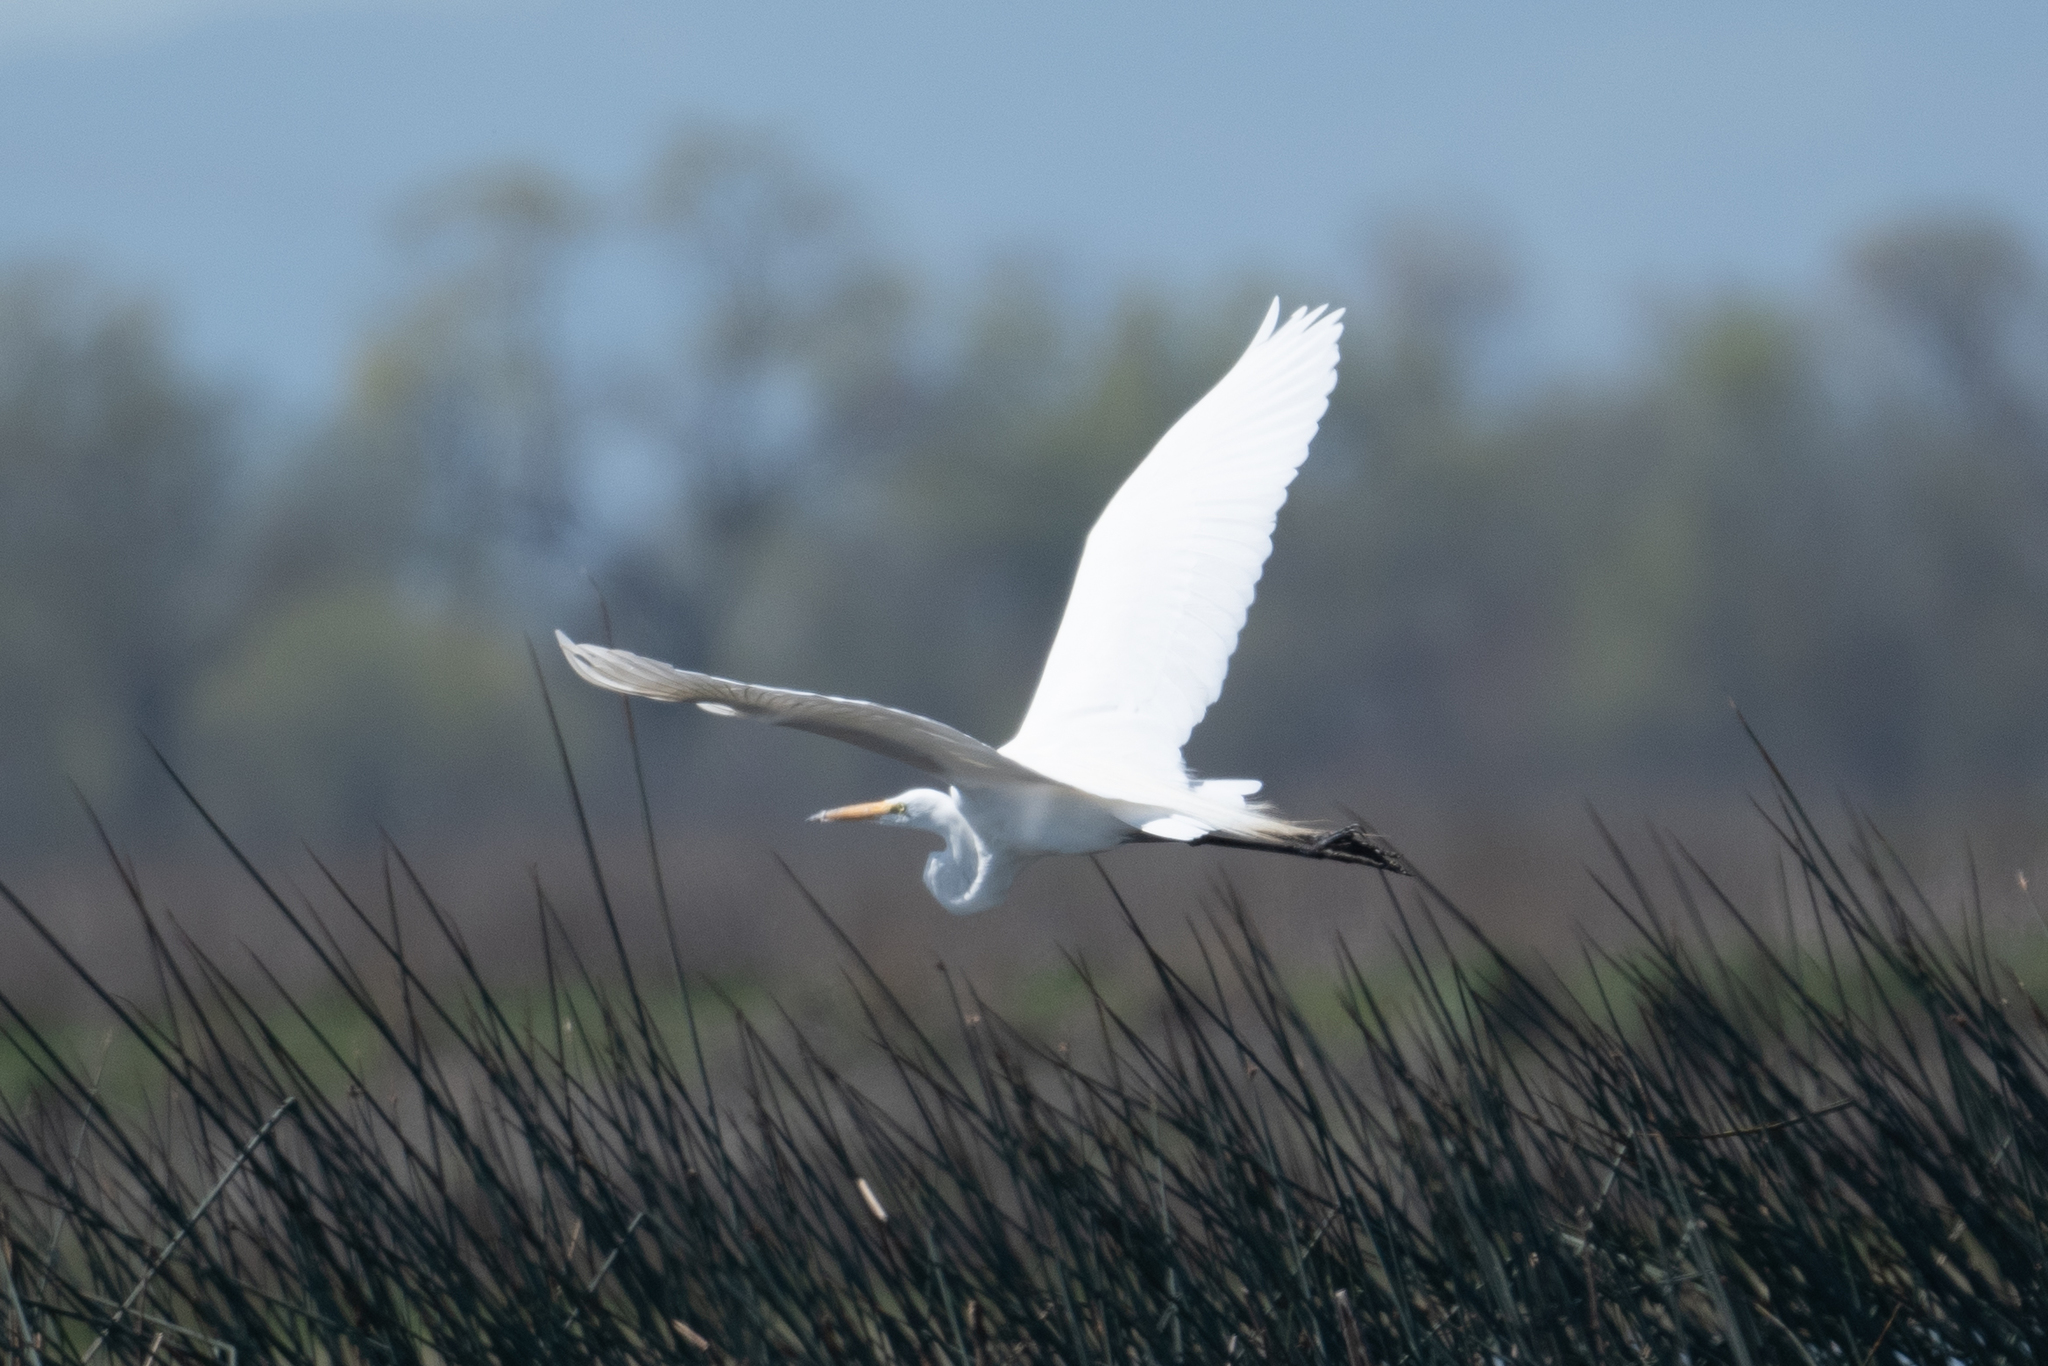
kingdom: Animalia
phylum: Chordata
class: Aves
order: Pelecaniformes
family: Ardeidae
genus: Ardea
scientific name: Ardea alba
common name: Great egret
